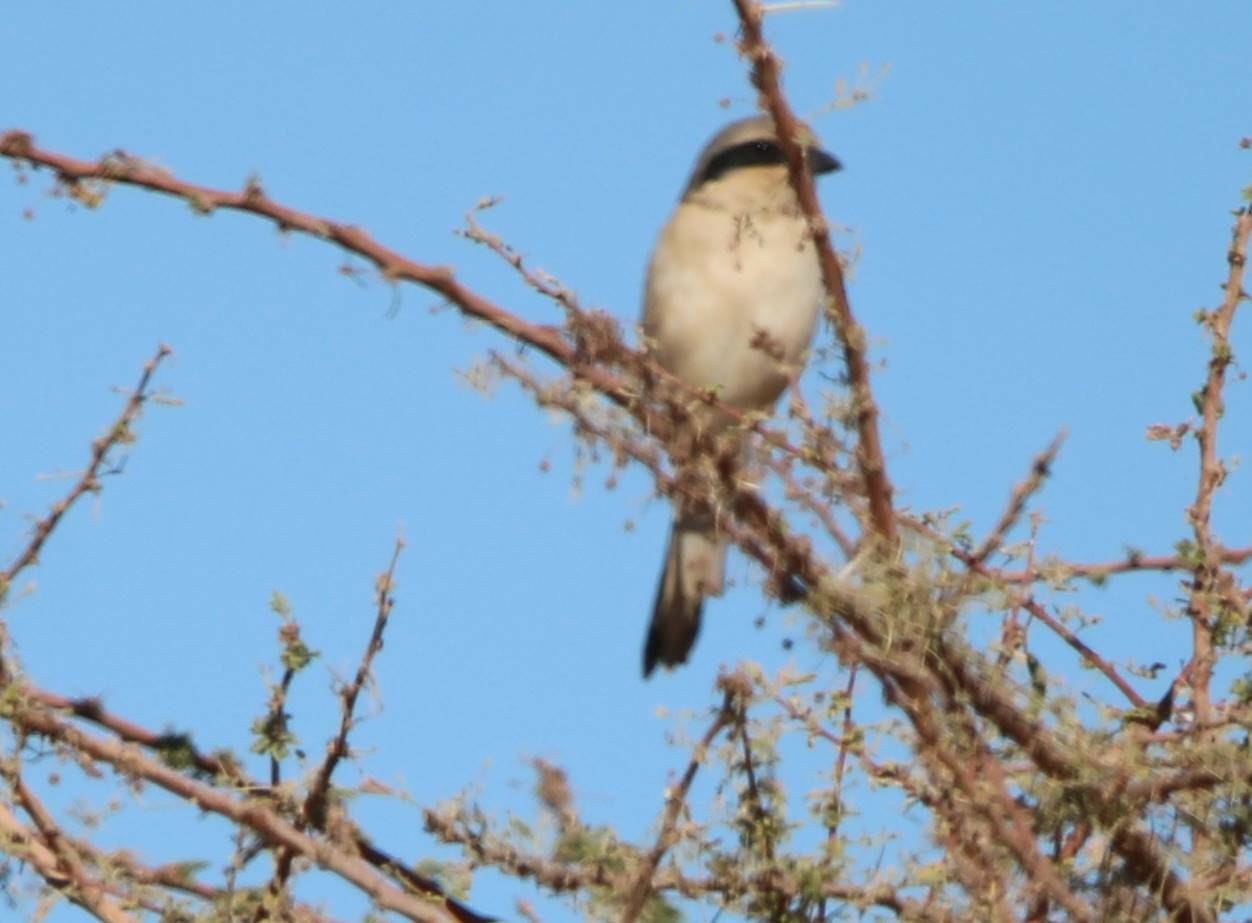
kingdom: Animalia
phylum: Chordata
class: Aves
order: Passeriformes
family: Laniidae
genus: Lanius
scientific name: Lanius excubitor
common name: Great grey shrike
